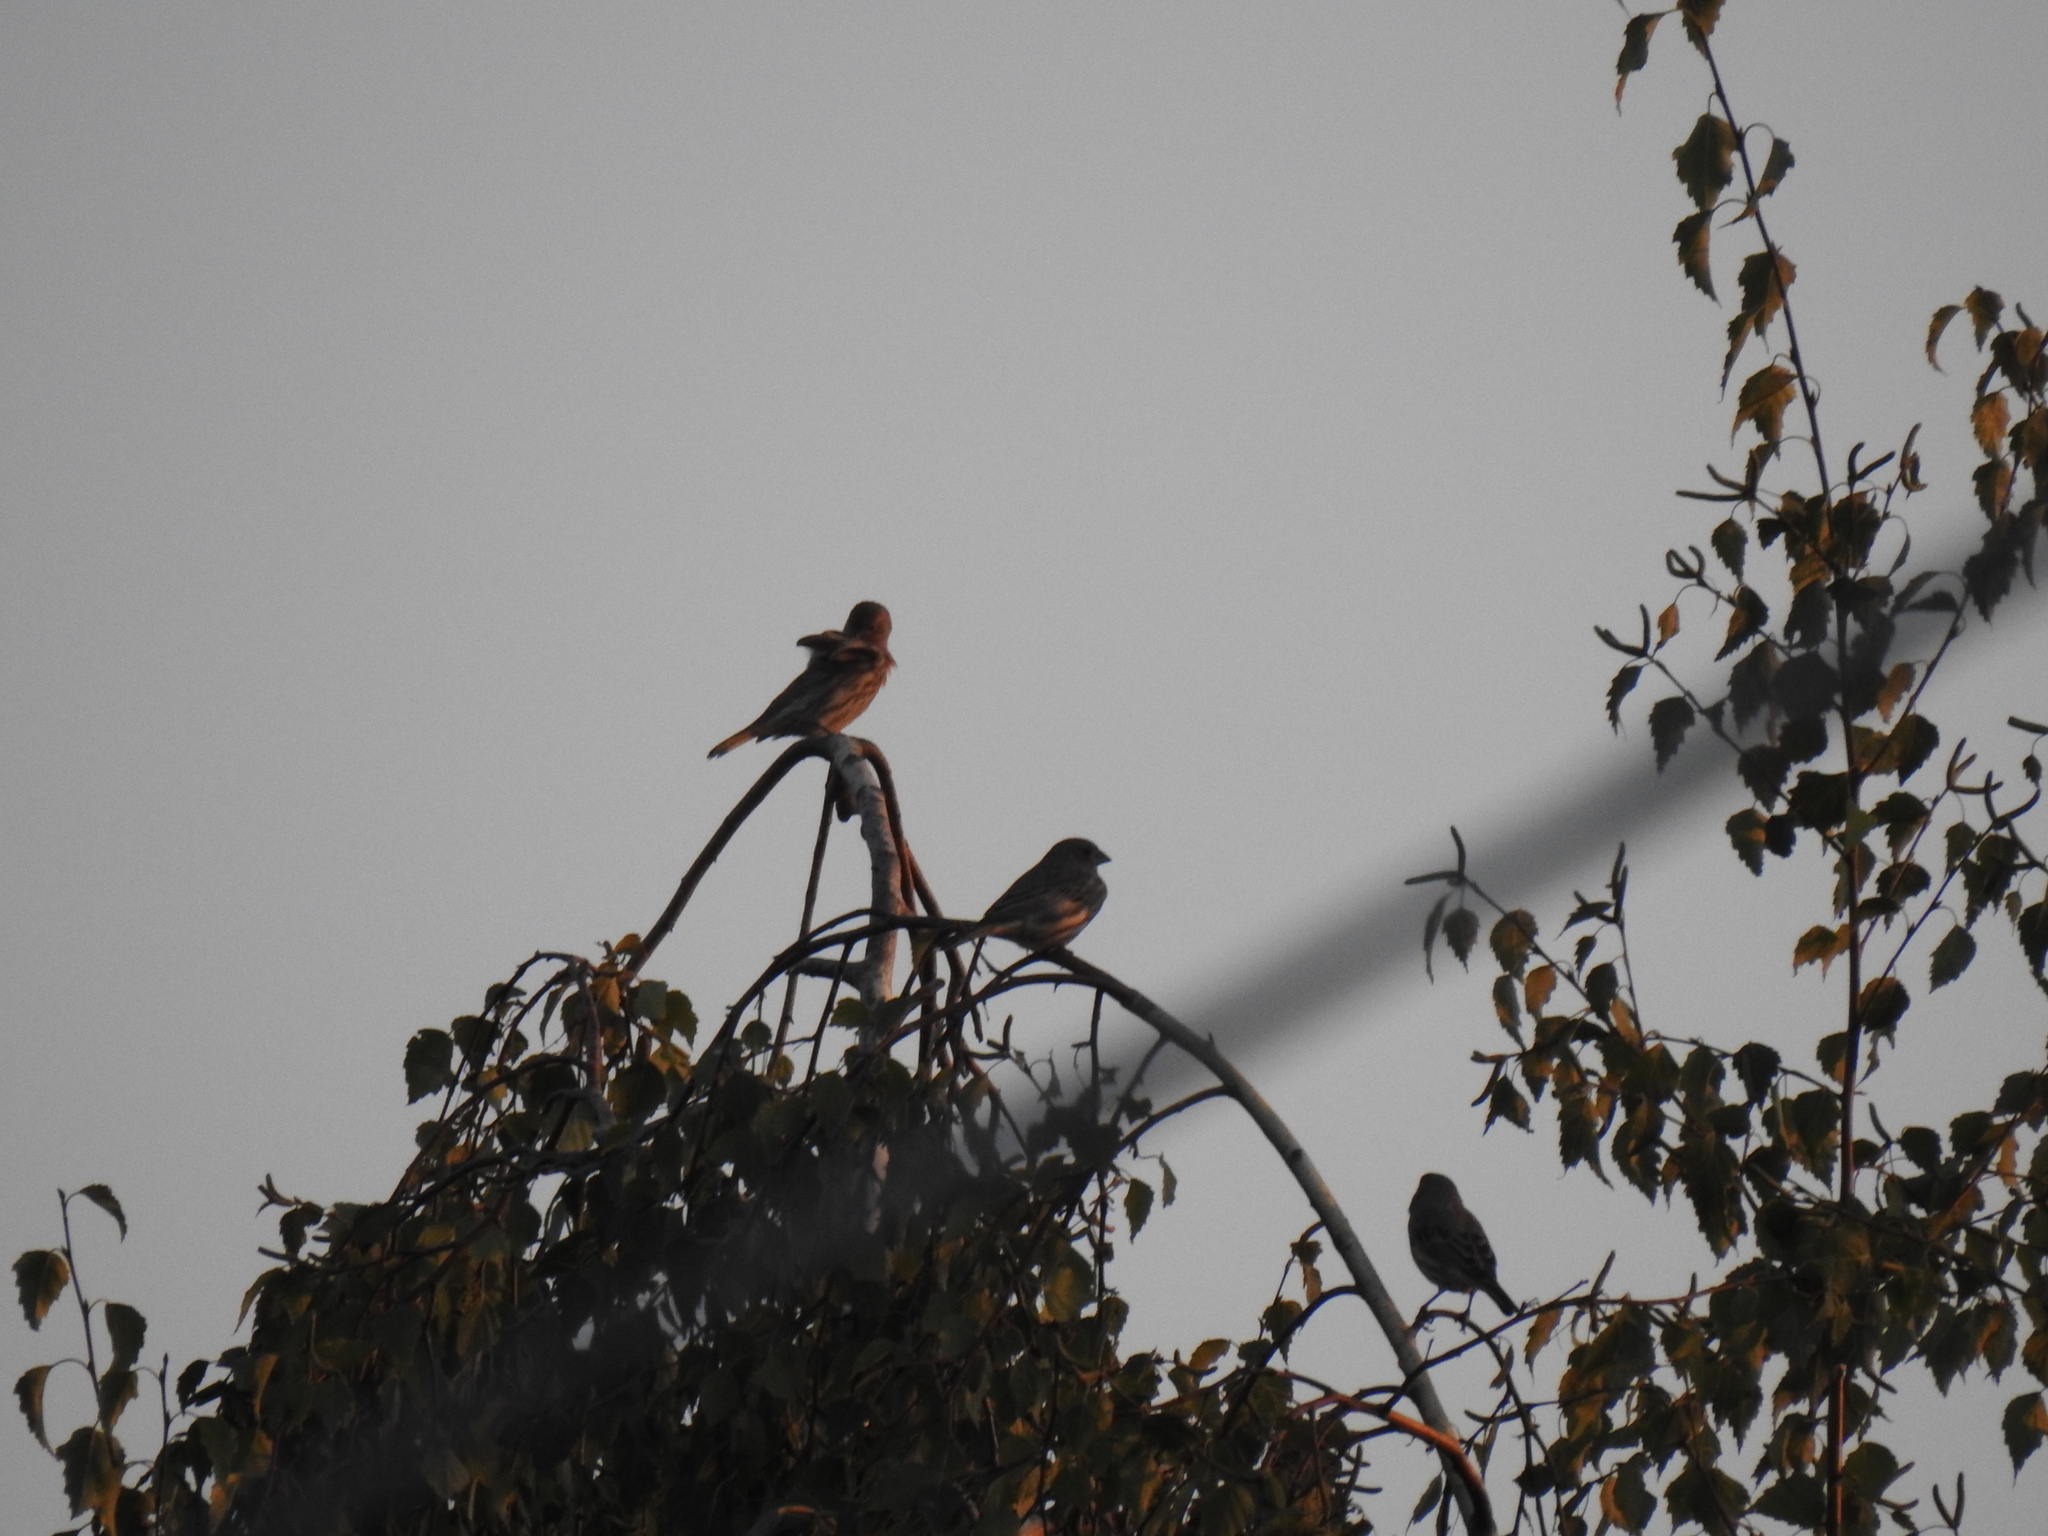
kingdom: Animalia
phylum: Chordata
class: Aves
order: Passeriformes
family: Fringillidae
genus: Haemorhous
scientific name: Haemorhous mexicanus
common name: House finch
